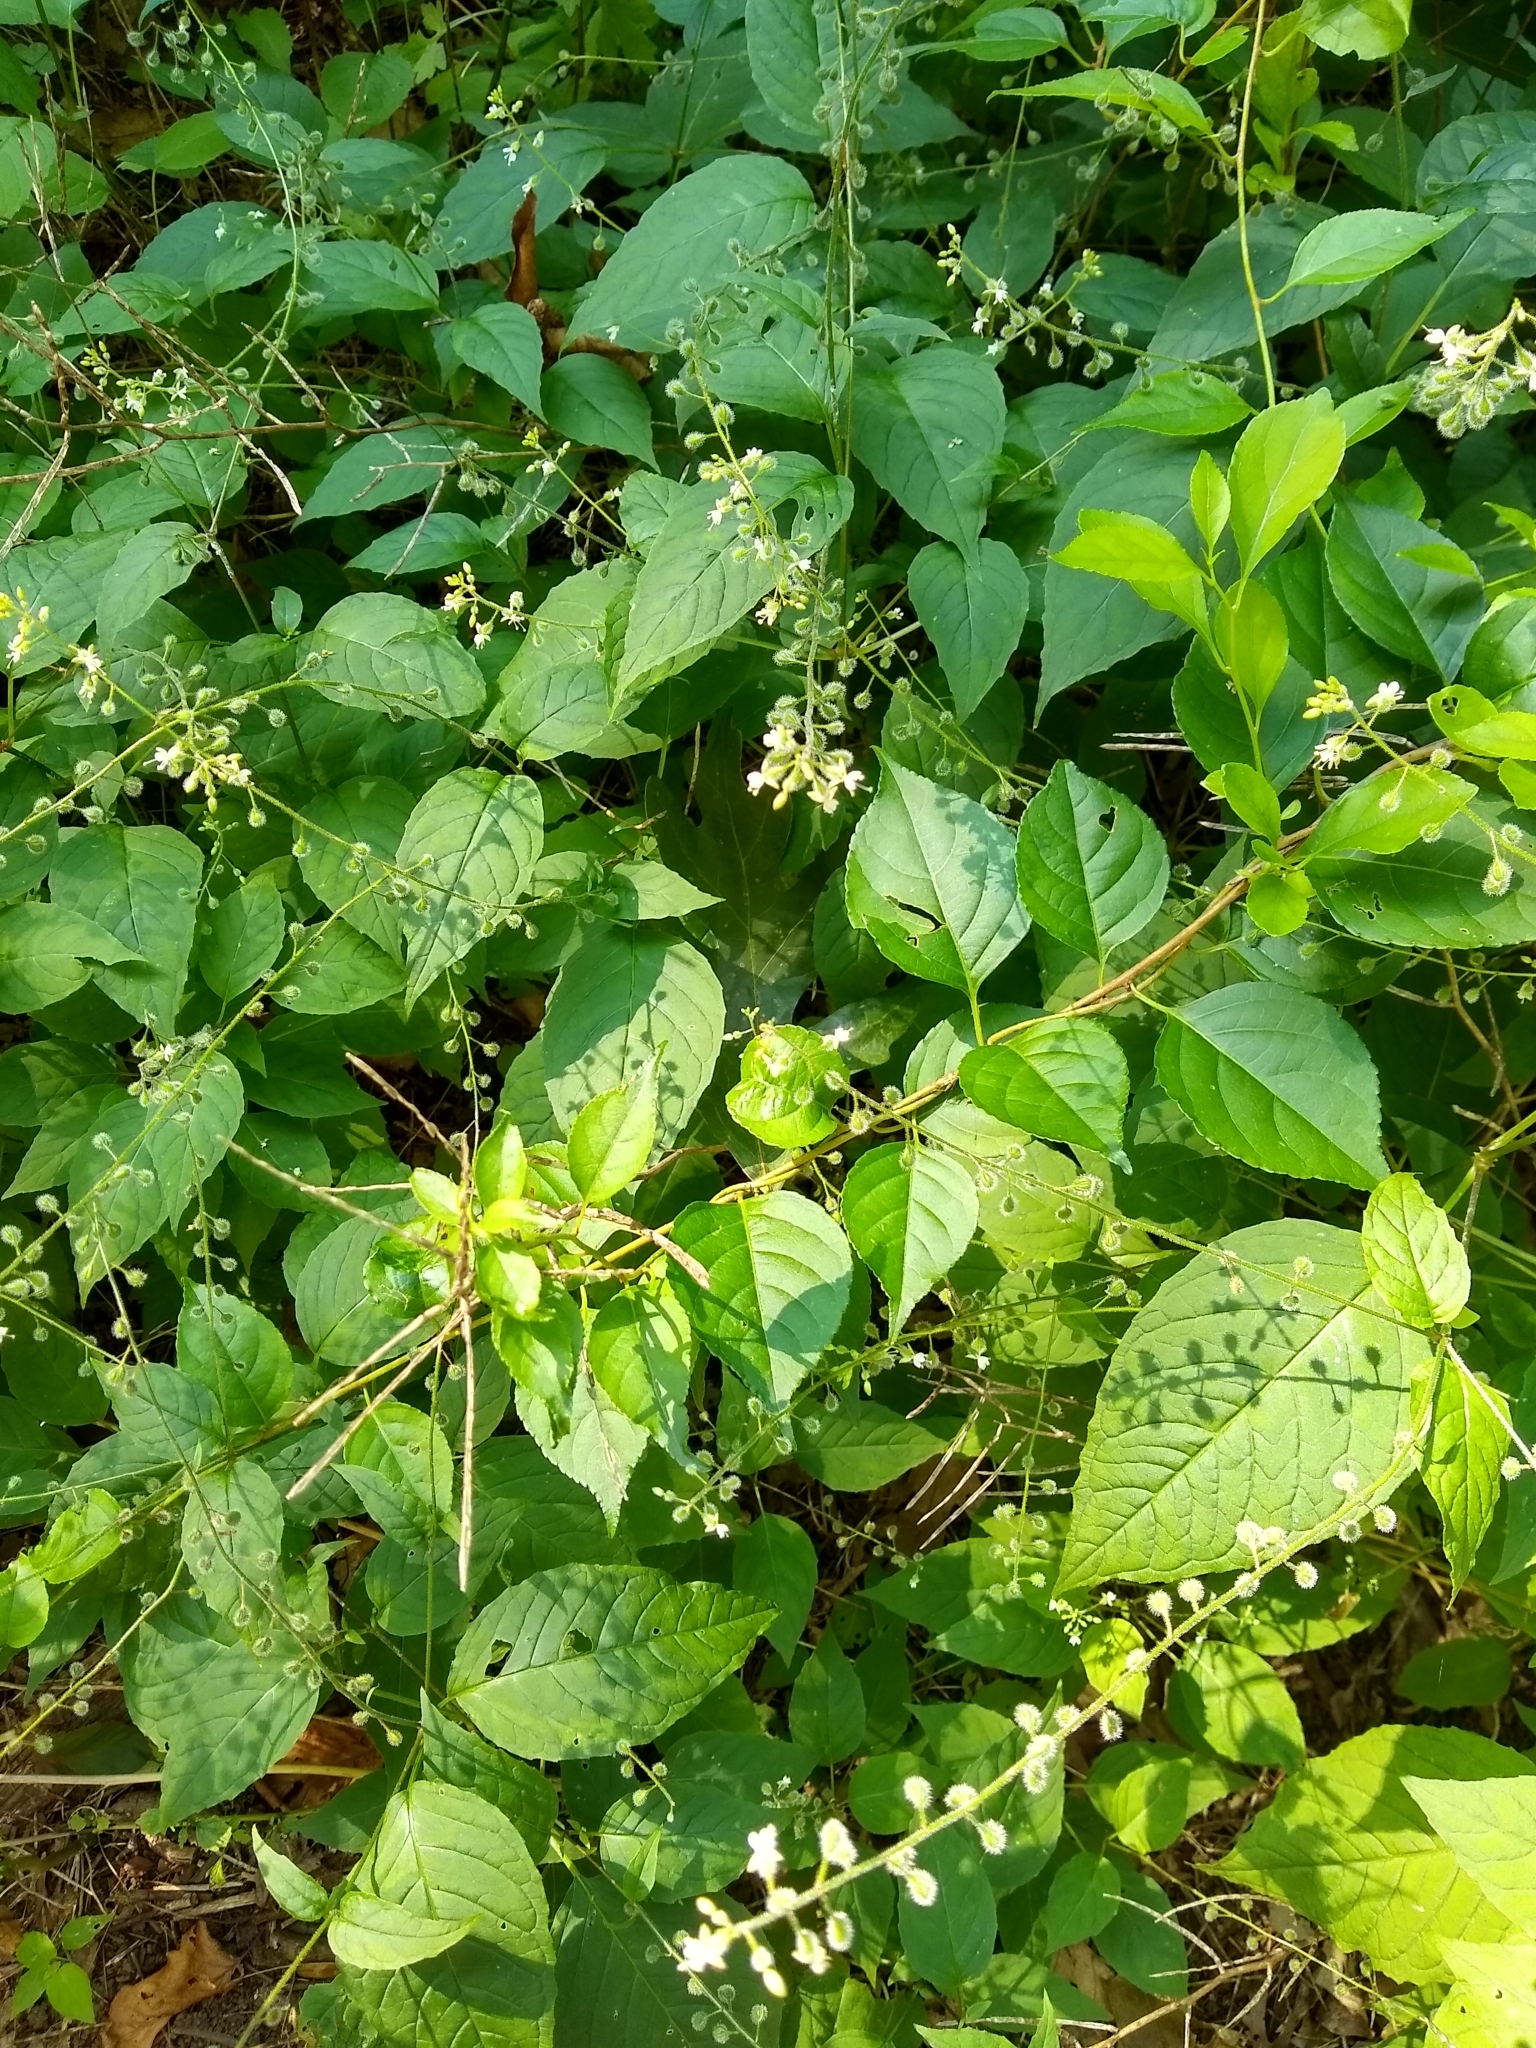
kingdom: Plantae
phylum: Tracheophyta
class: Magnoliopsida
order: Myrtales
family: Onagraceae
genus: Circaea
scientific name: Circaea canadensis
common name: Broad-leaved enchanter's nightshade
